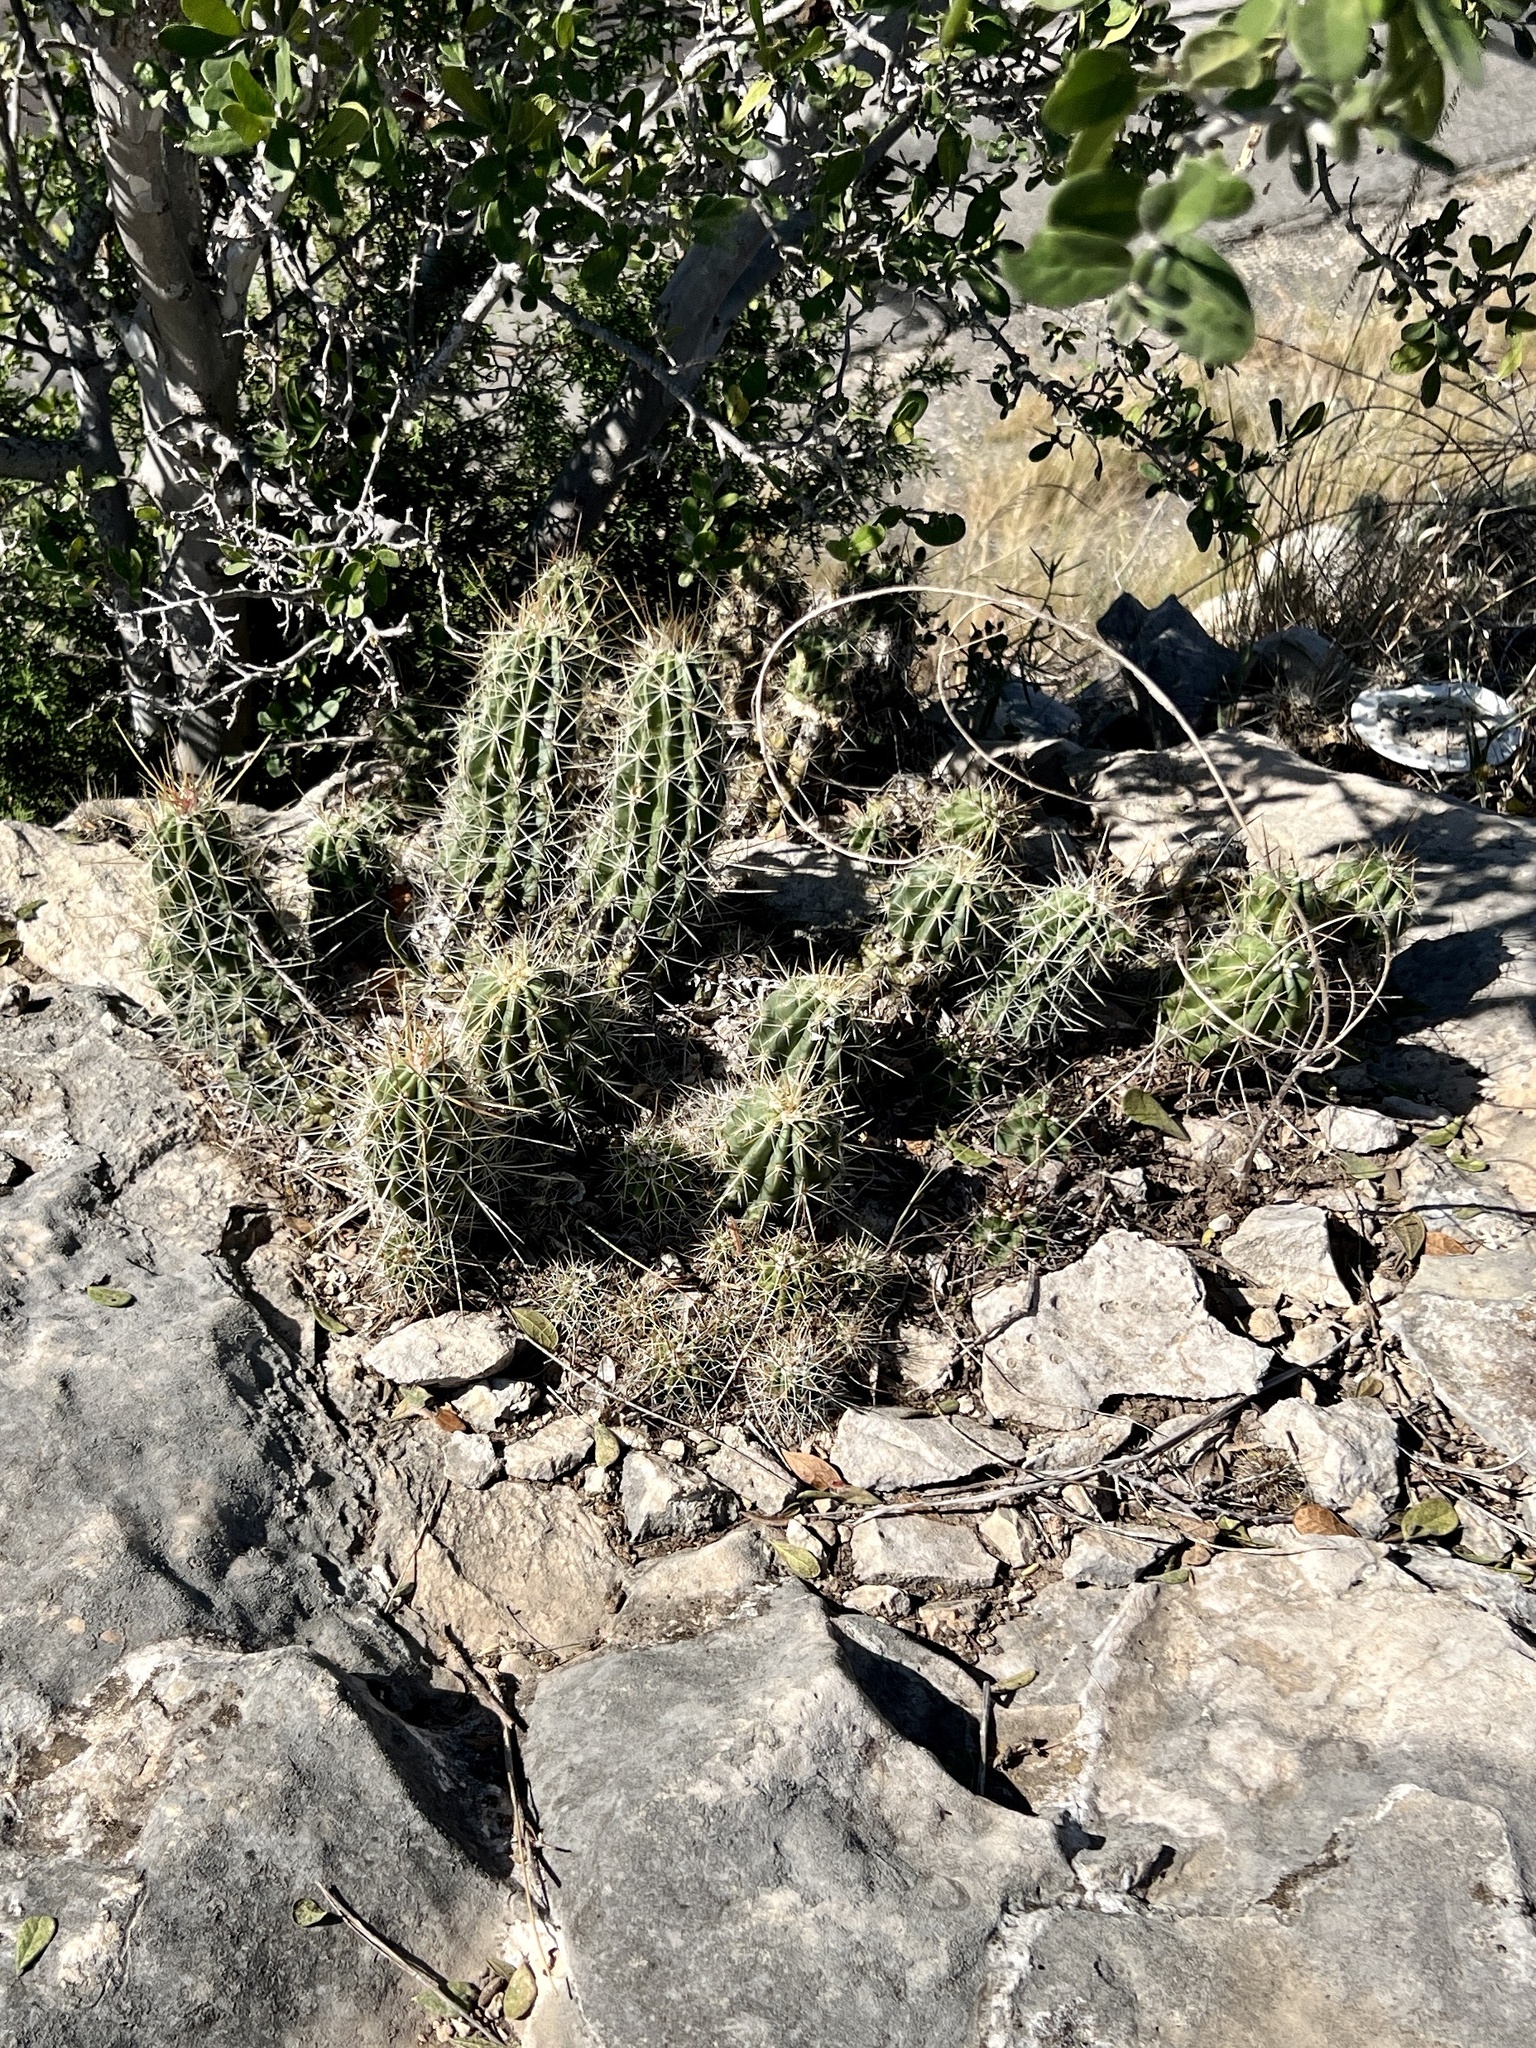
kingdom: Plantae
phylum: Tracheophyta
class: Magnoliopsida
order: Caryophyllales
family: Cactaceae
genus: Echinocereus
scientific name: Echinocereus enneacanthus
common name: Pitaya
